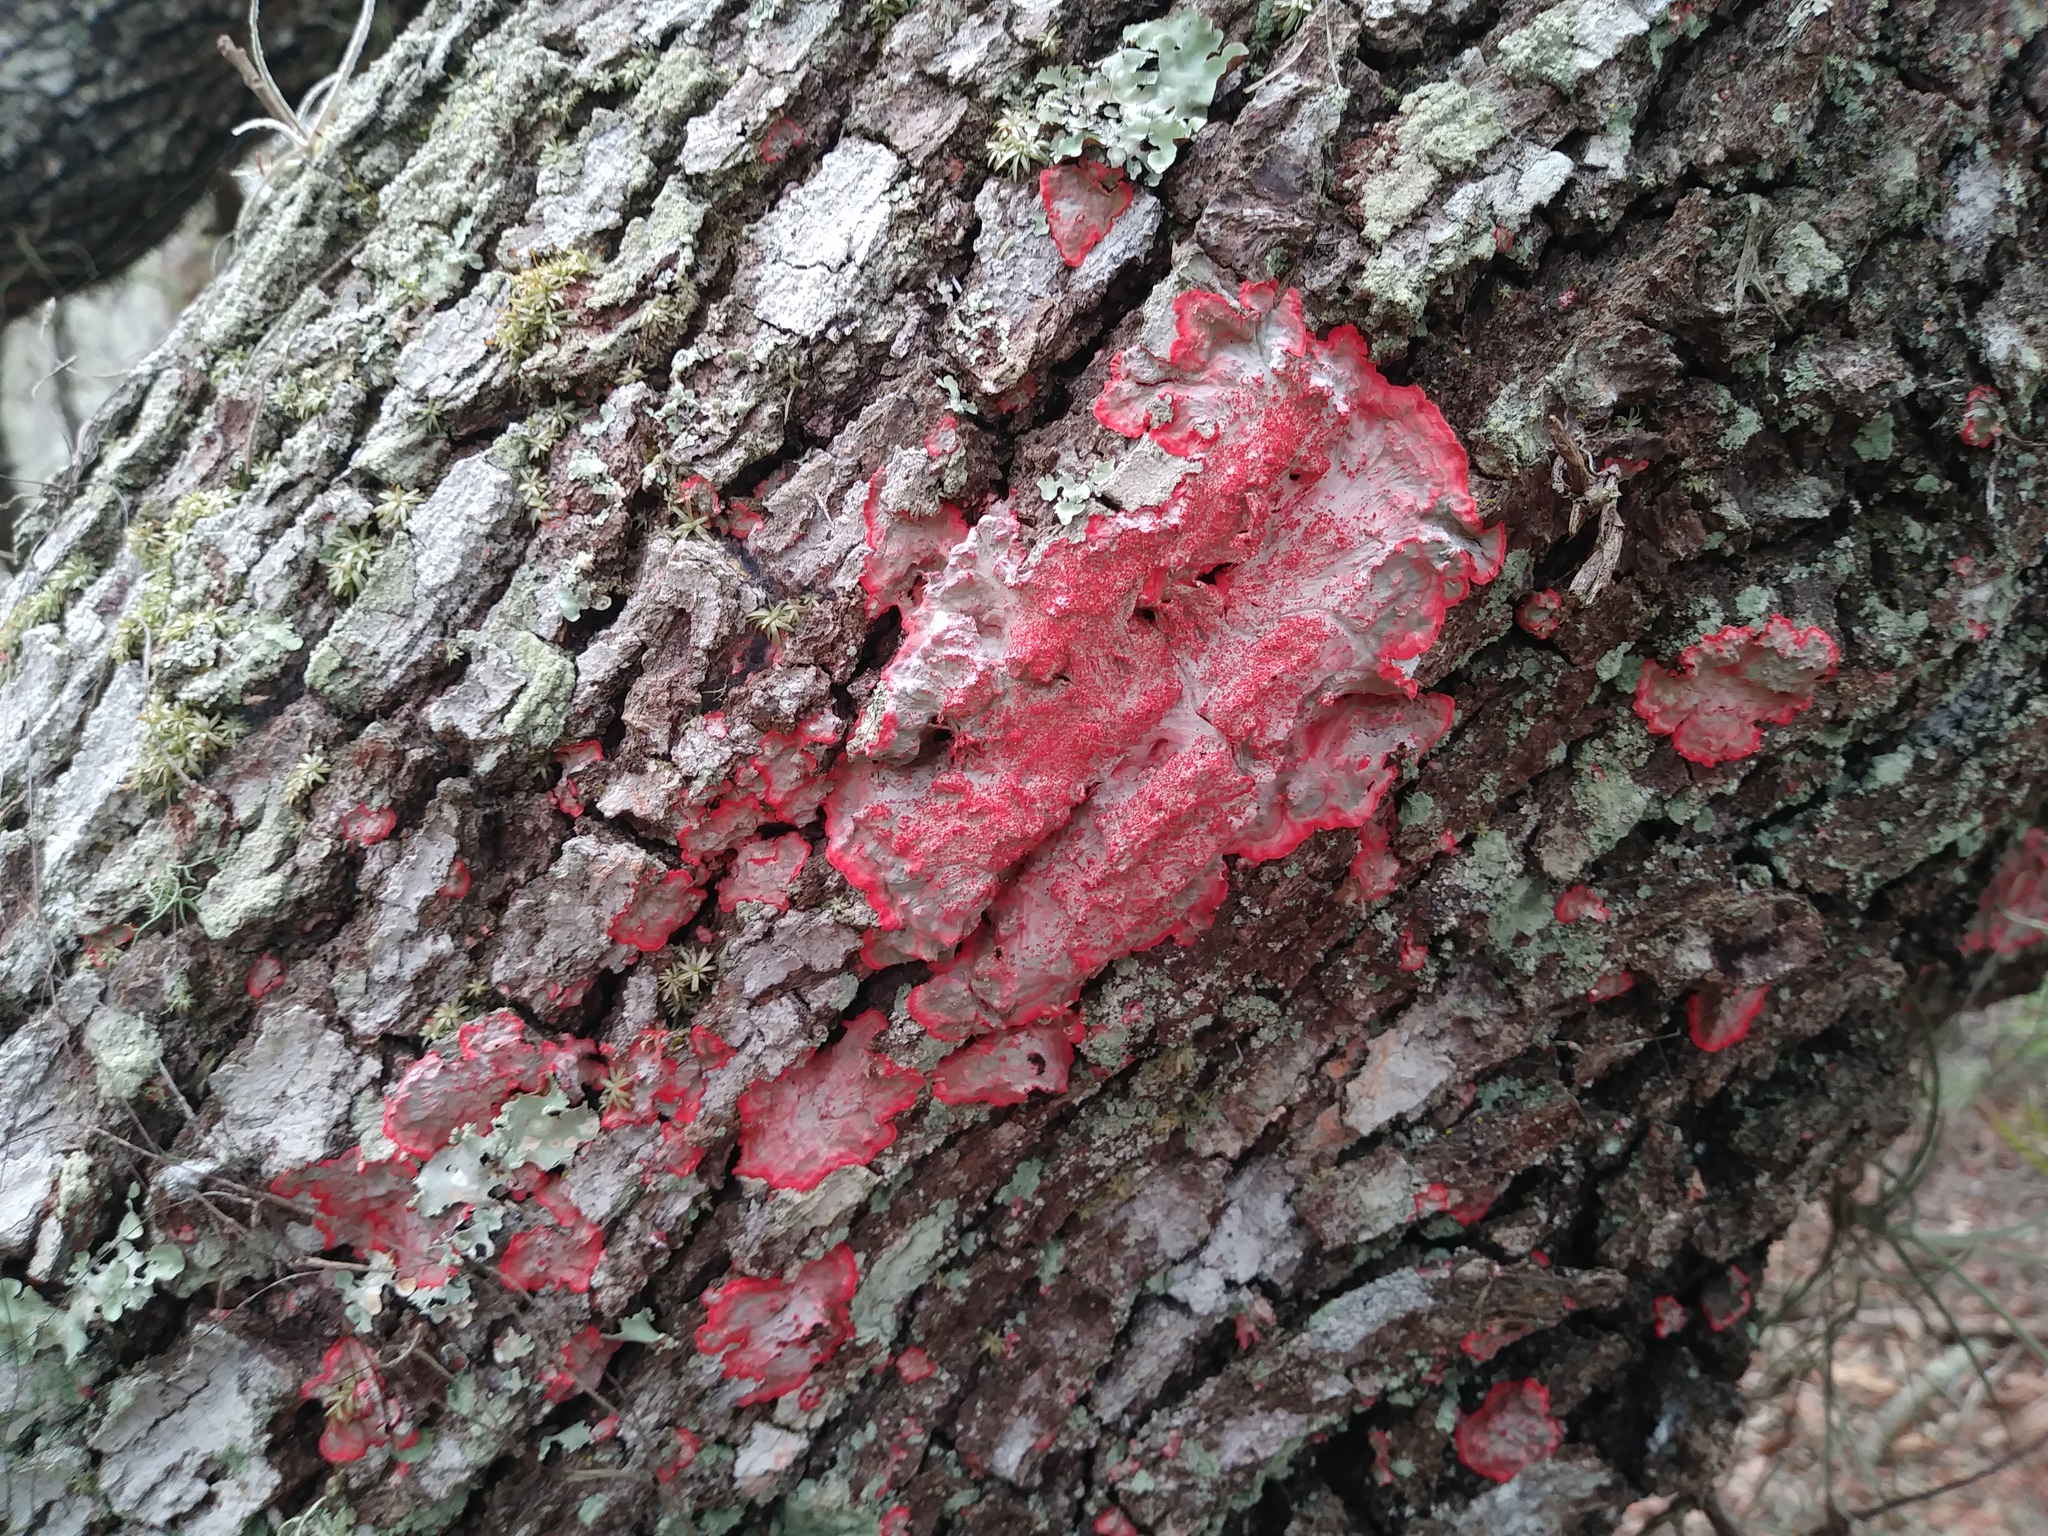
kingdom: Fungi
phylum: Ascomycota
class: Arthoniomycetes
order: Arthoniales
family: Arthoniaceae
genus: Herpothallon
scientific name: Herpothallon rubrocinctum
